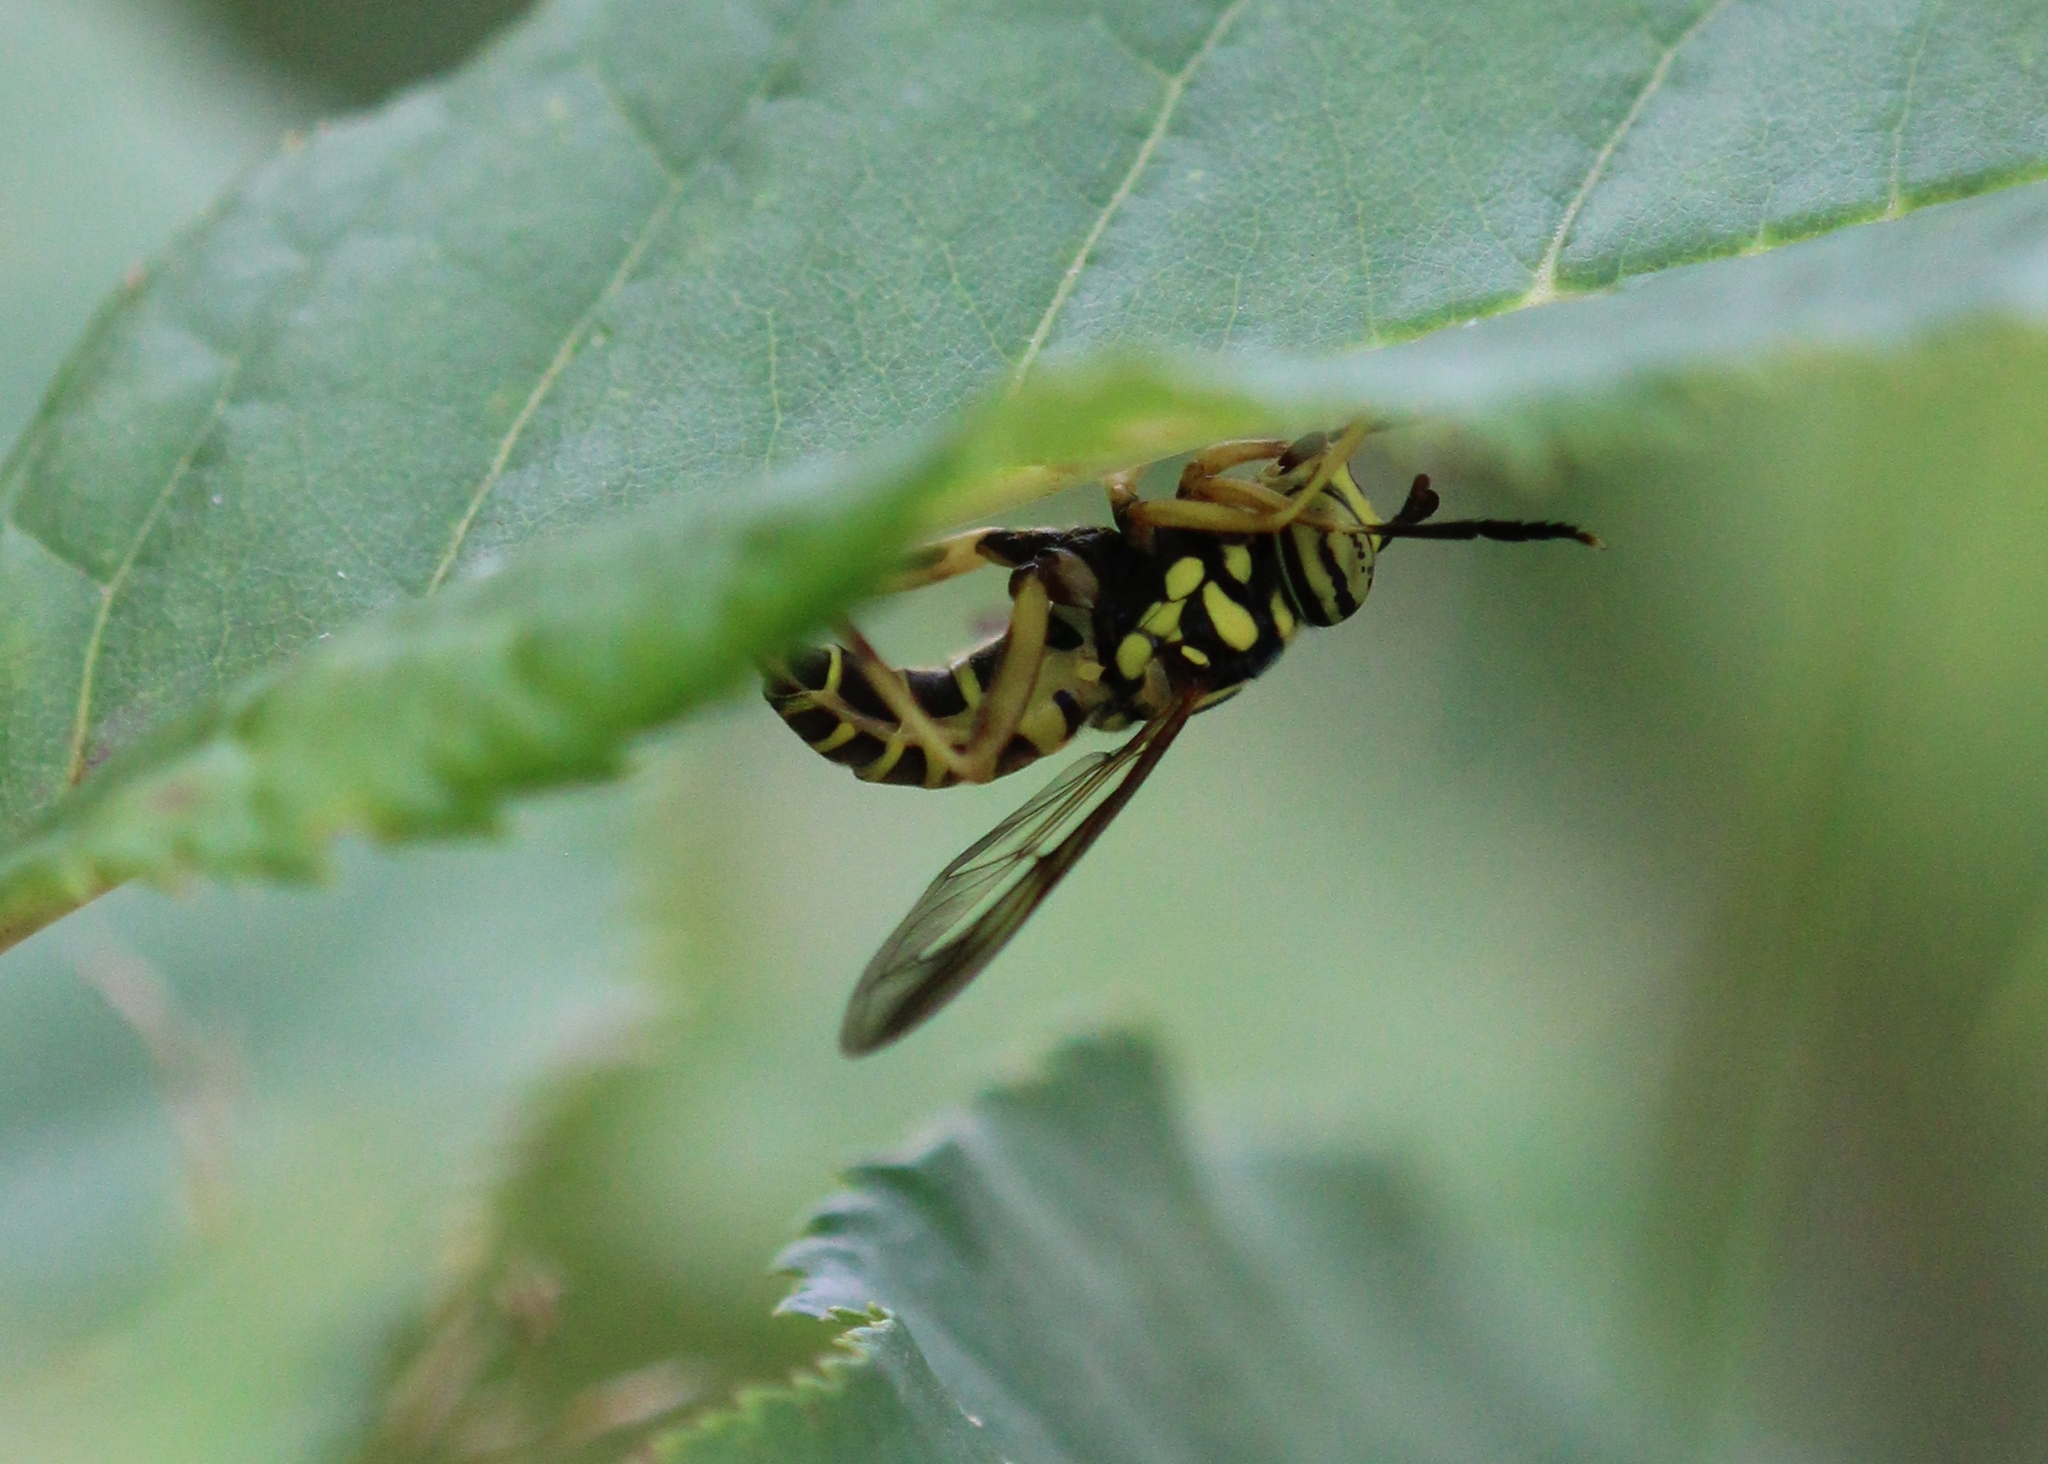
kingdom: Animalia
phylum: Arthropoda
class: Insecta
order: Diptera
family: Syrphidae
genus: Spilomyia
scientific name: Spilomyia longicornis
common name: Eastern hornet fly
